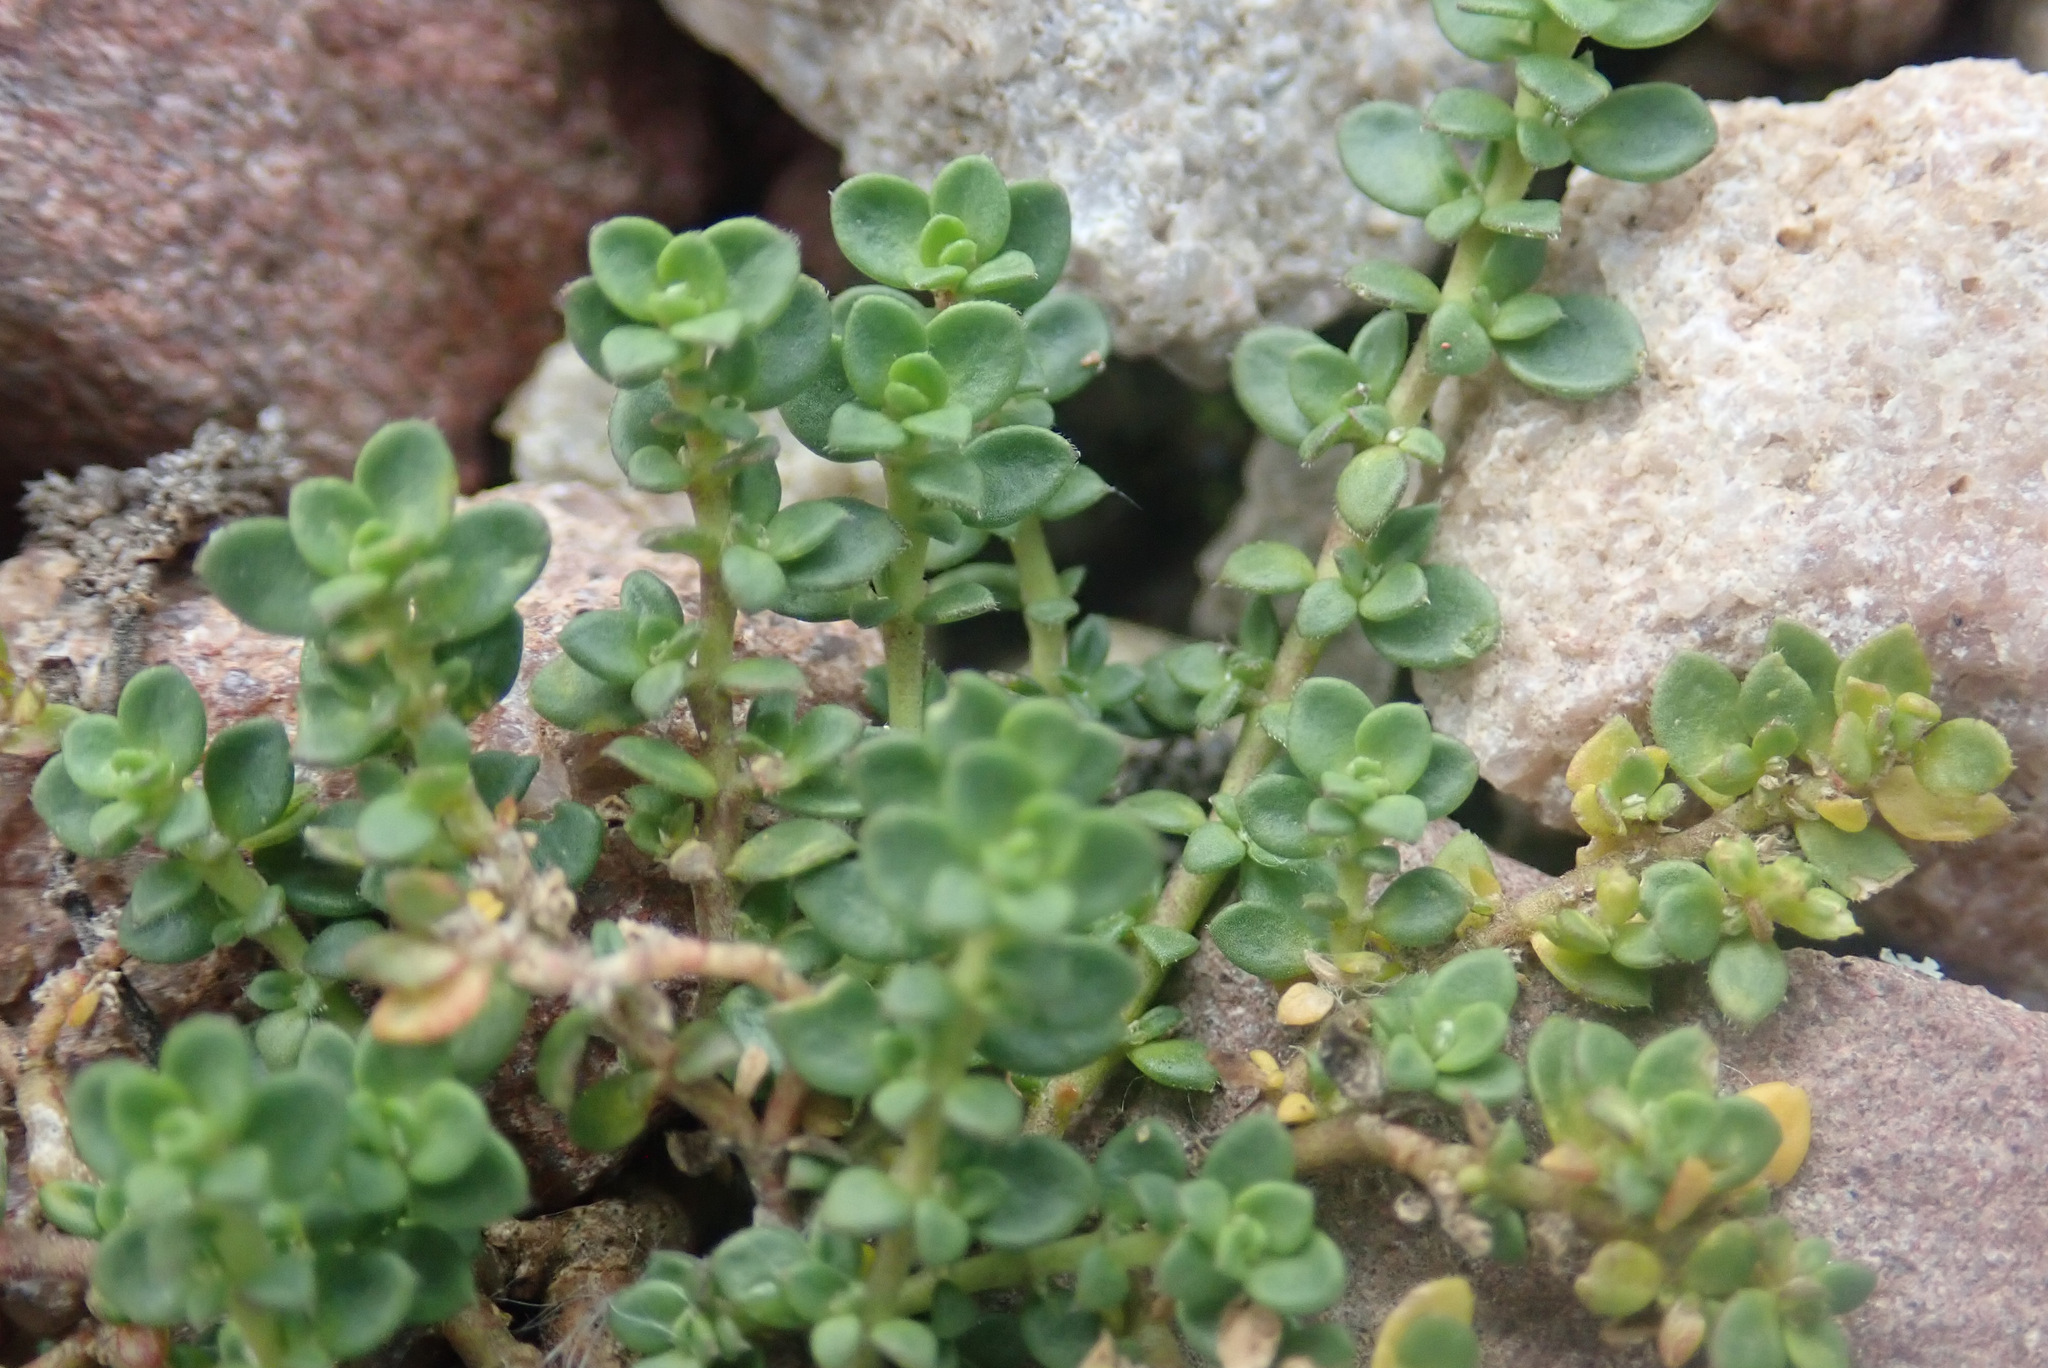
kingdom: Plantae
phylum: Tracheophyta
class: Magnoliopsida
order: Caryophyllales
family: Caryophyllaceae
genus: Herniaria
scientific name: Herniaria glabra
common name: Smooth rupturewort
